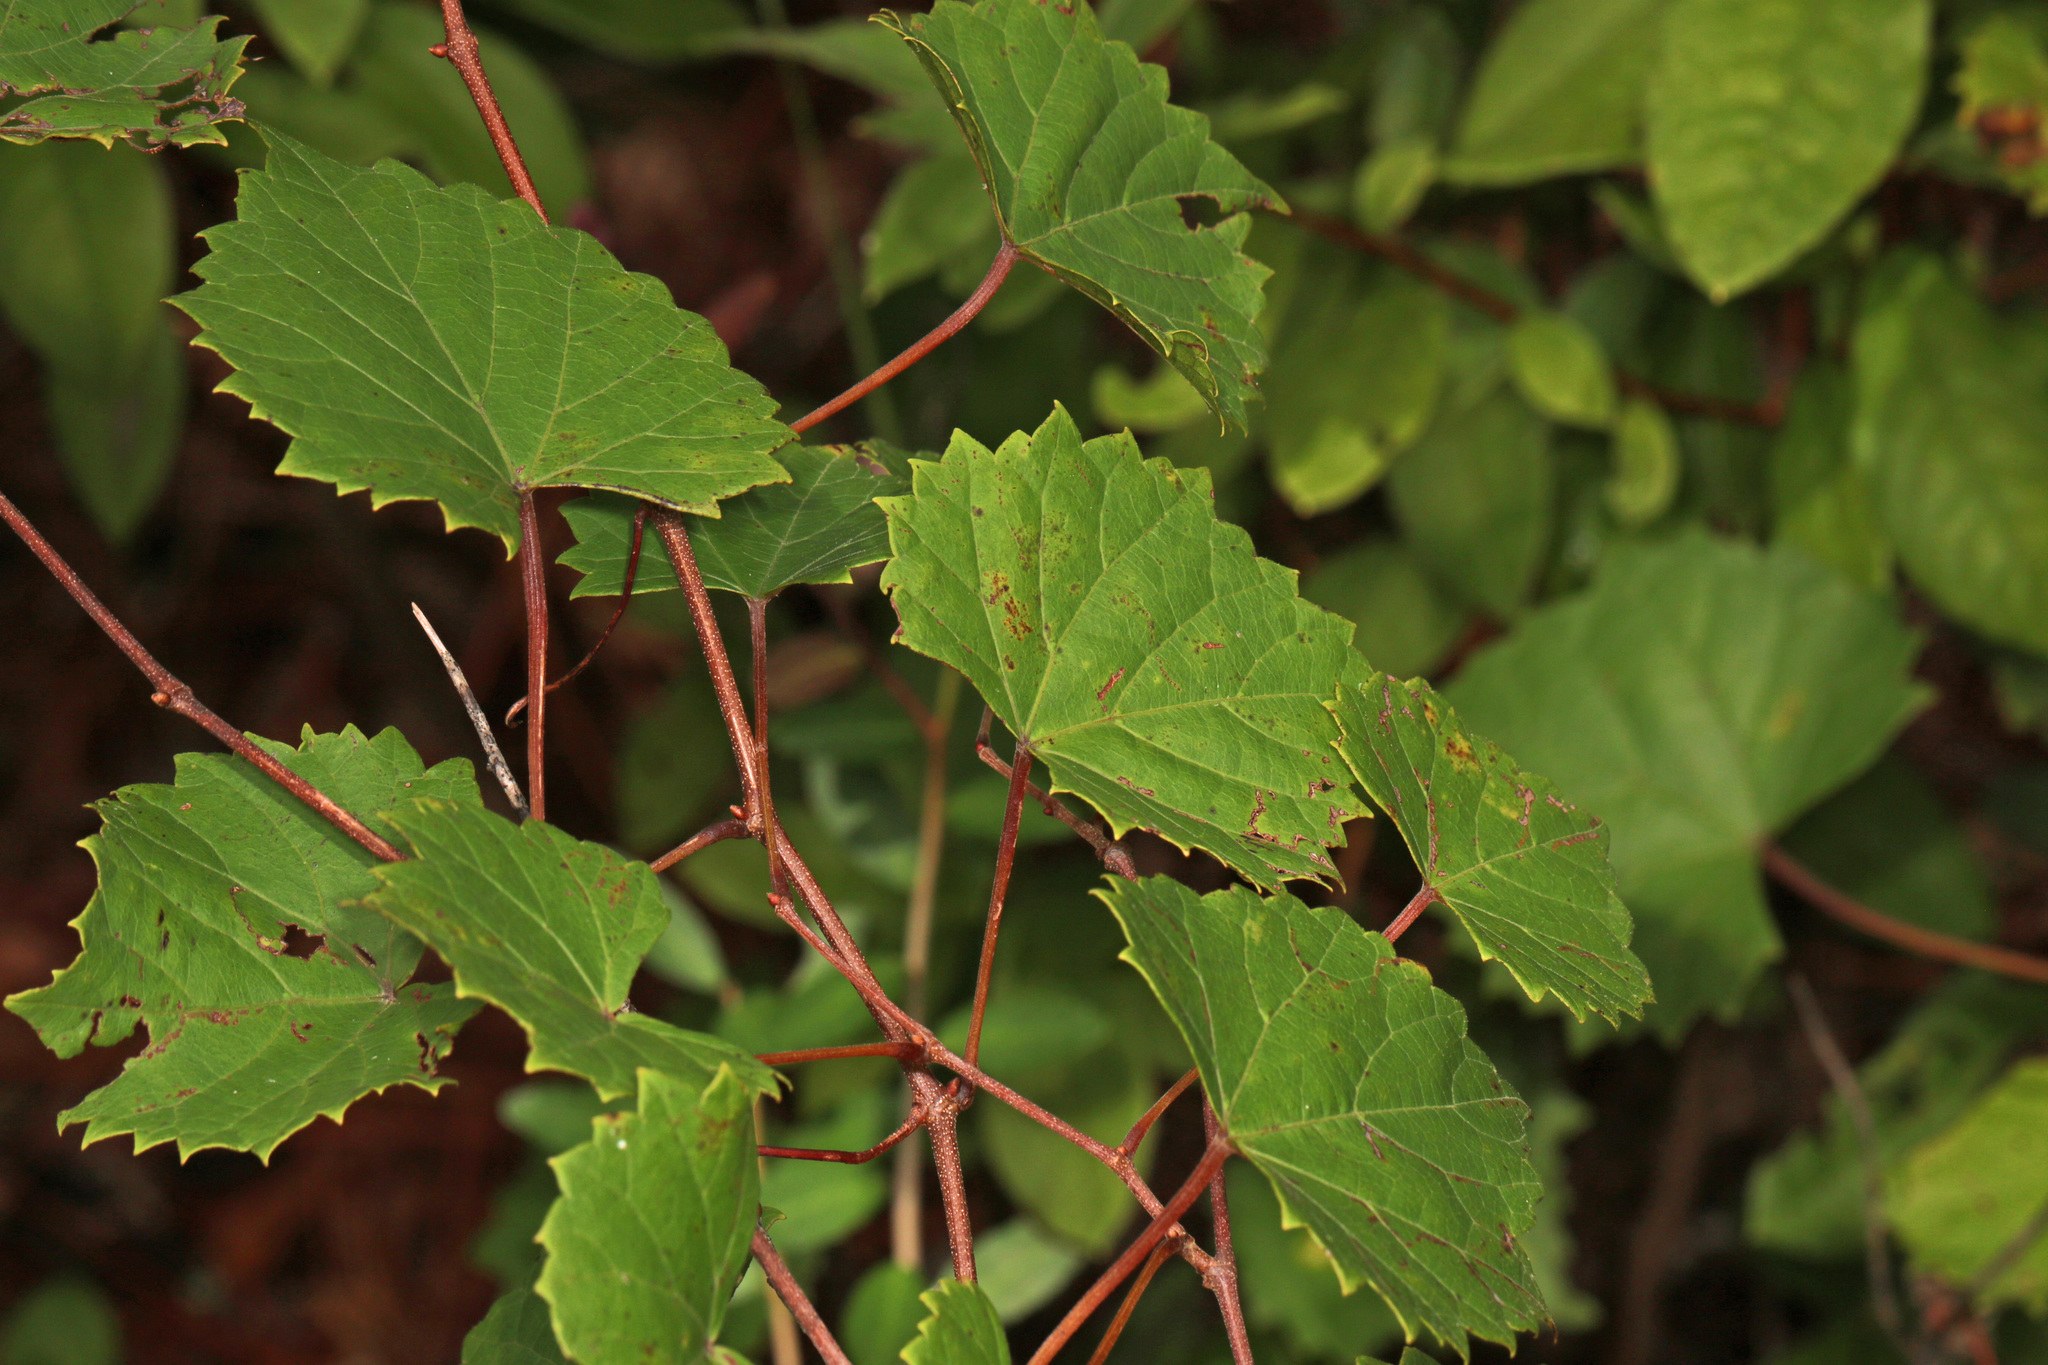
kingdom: Plantae
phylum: Tracheophyta
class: Magnoliopsida
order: Vitales
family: Vitaceae
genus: Vitis
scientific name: Vitis rotundifolia
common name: Muscadine grape
